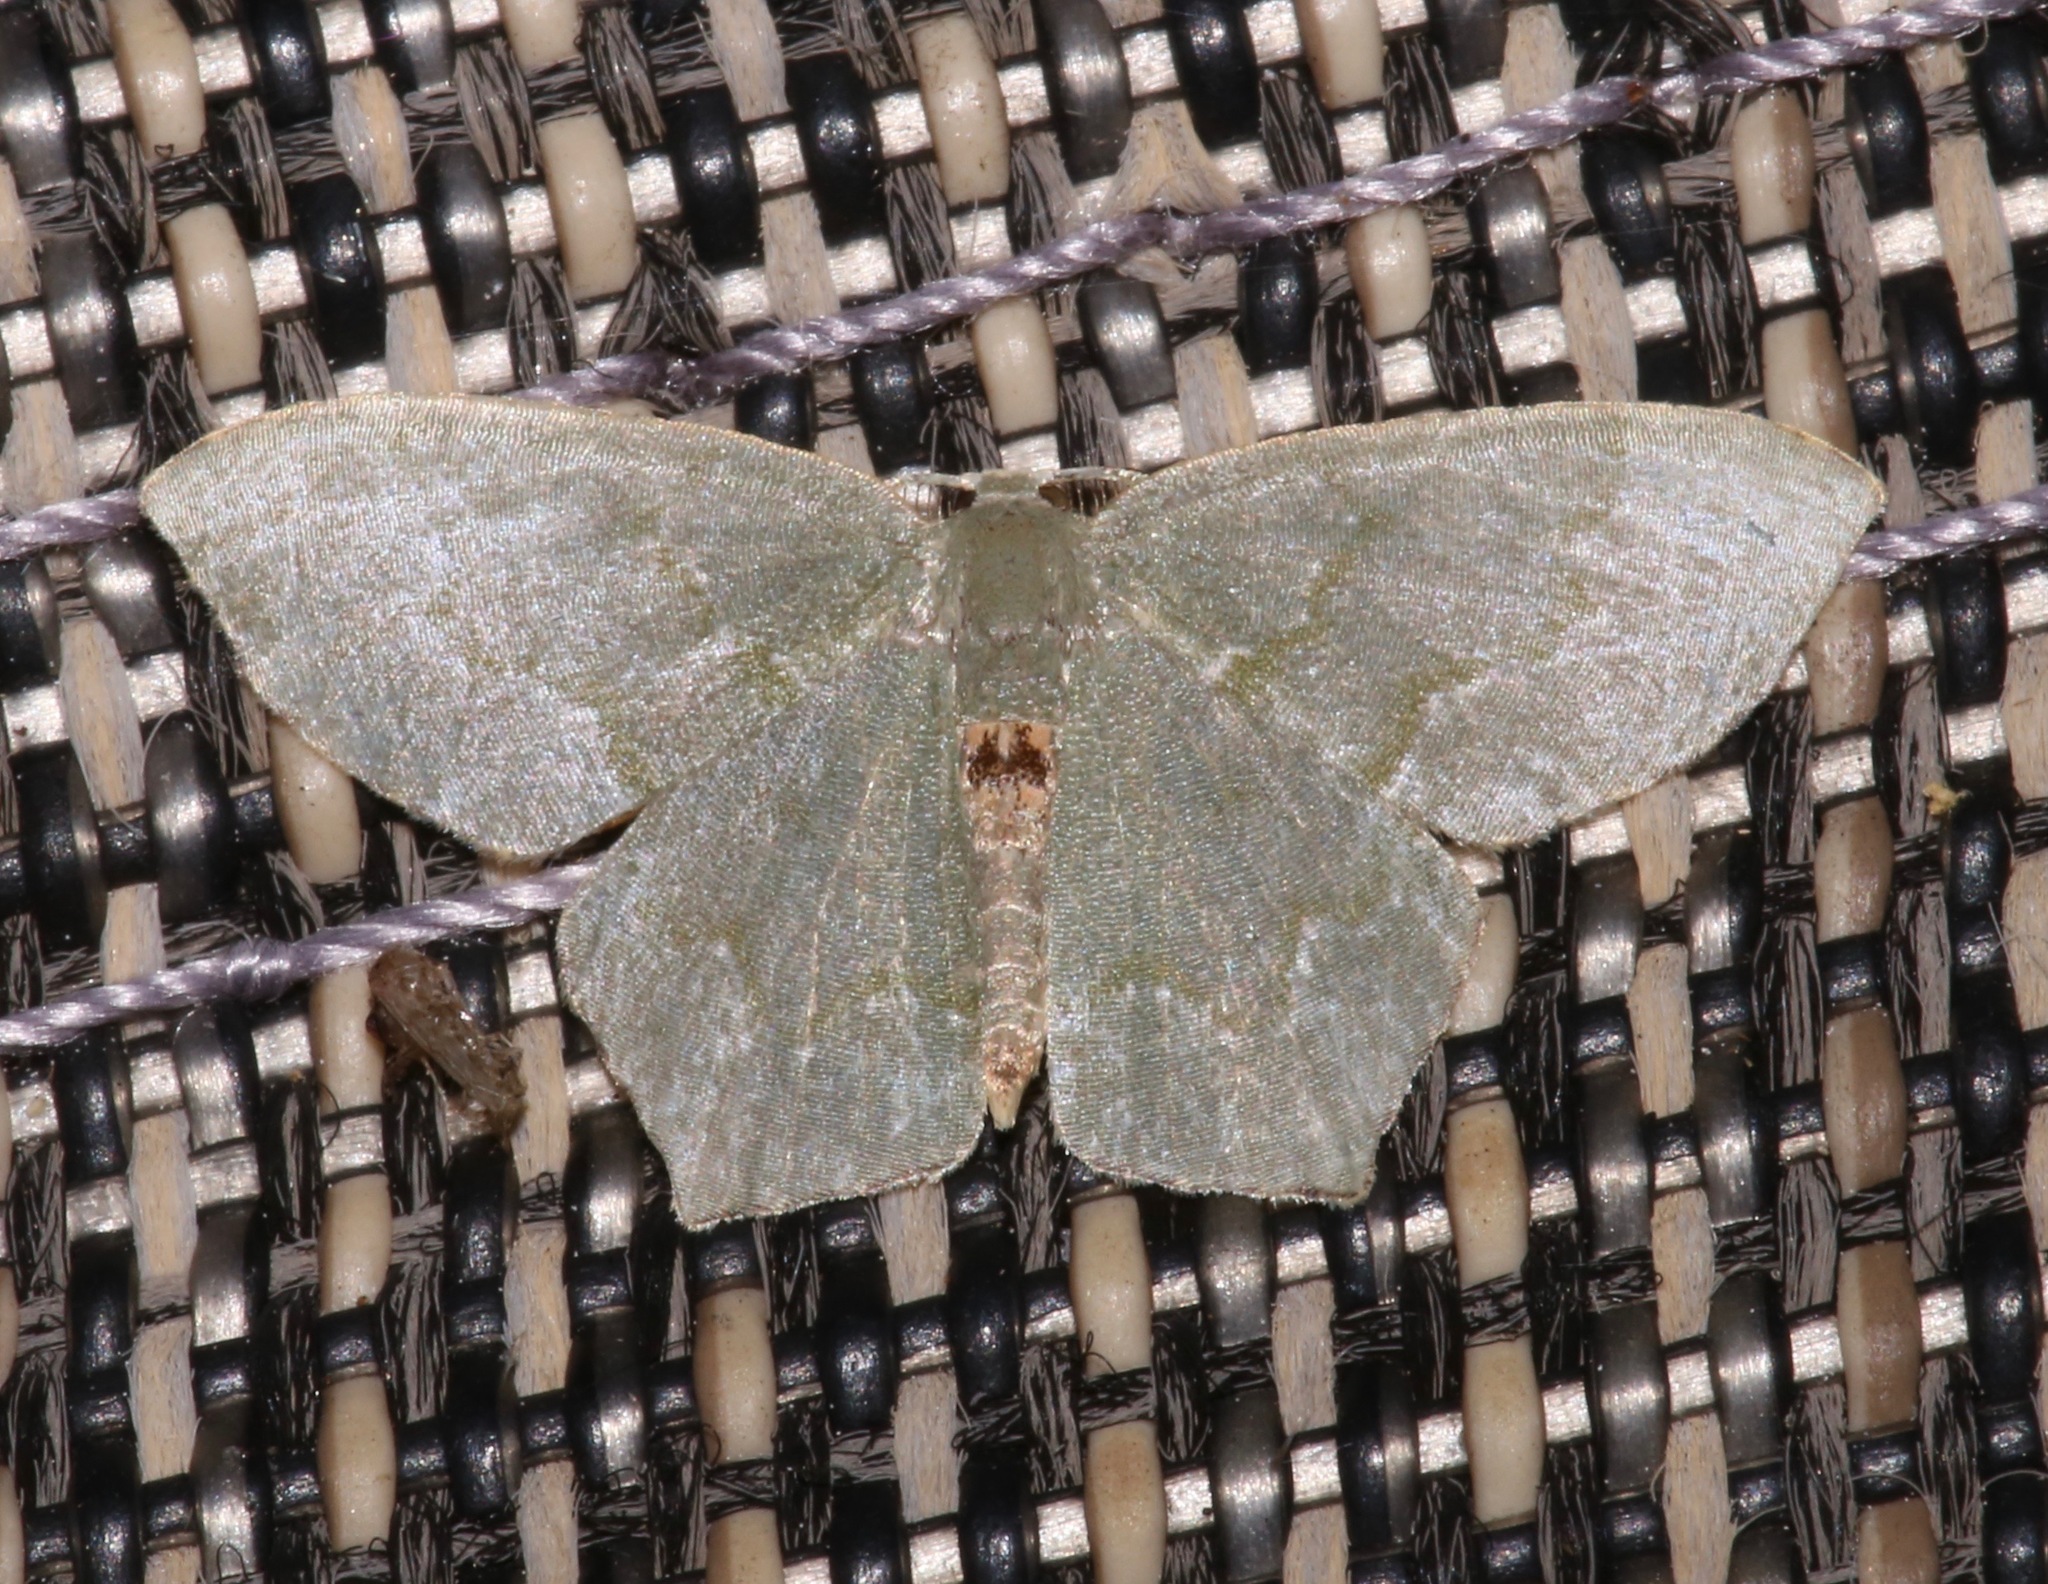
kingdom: Animalia
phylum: Arthropoda
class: Insecta
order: Lepidoptera
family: Geometridae
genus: Chloropteryx
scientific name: Chloropteryx tepperaria
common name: Angle winged emerald moth
